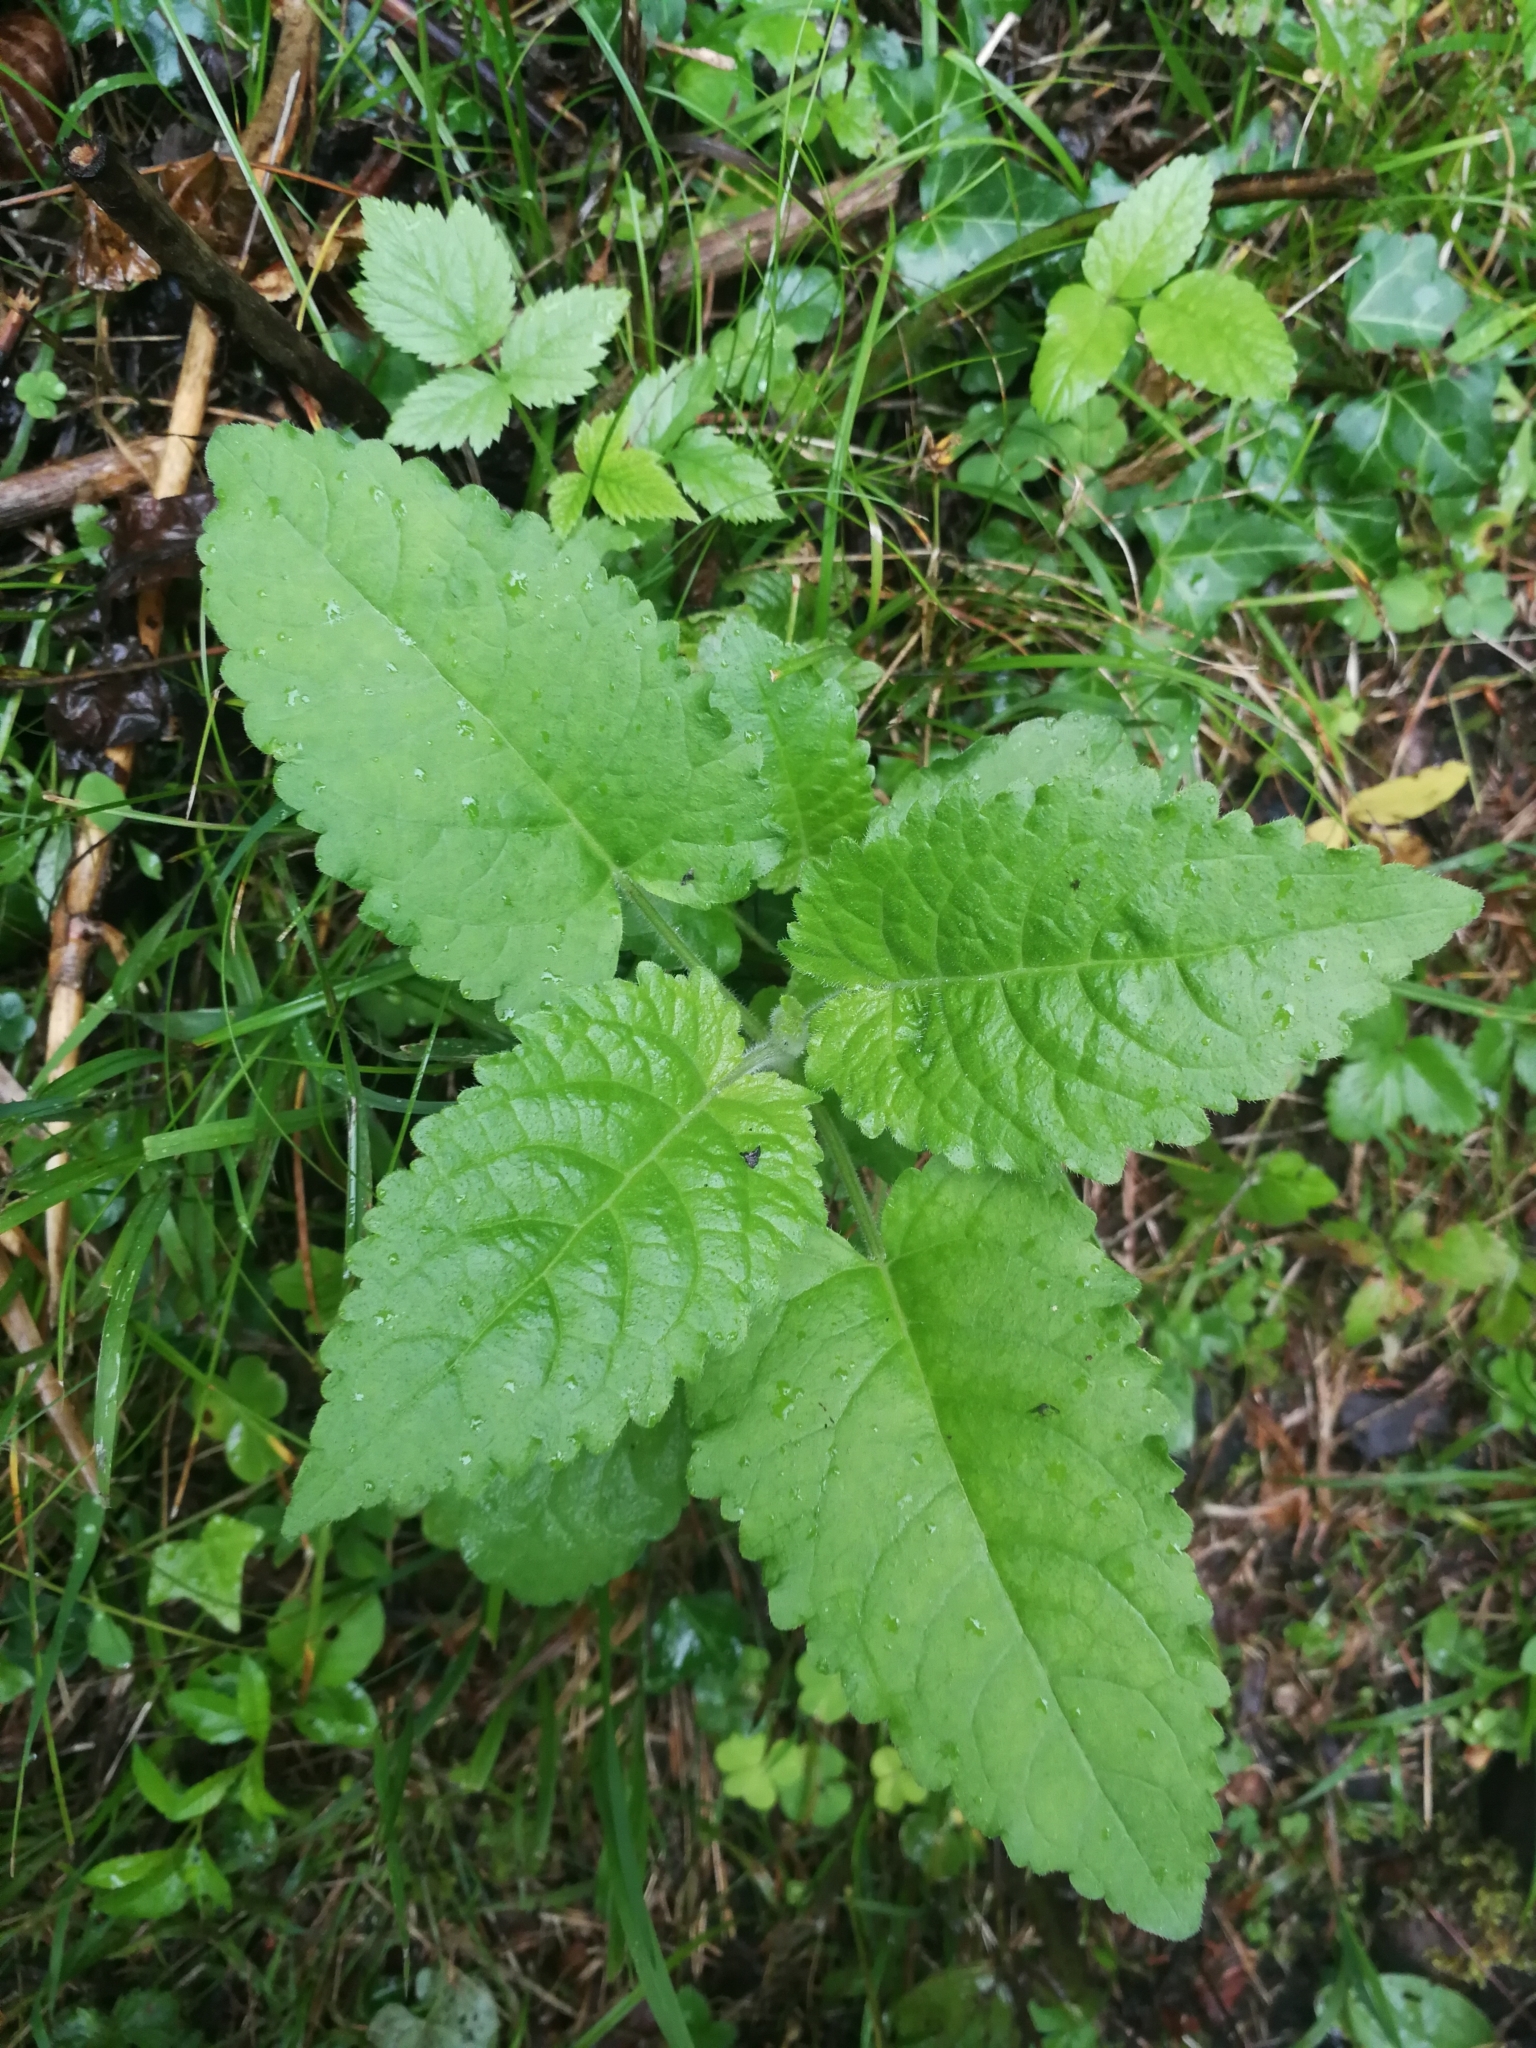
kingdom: Plantae
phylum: Tracheophyta
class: Magnoliopsida
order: Lamiales
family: Lamiaceae
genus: Salvia
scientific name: Salvia glutinosa
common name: Sticky clary
